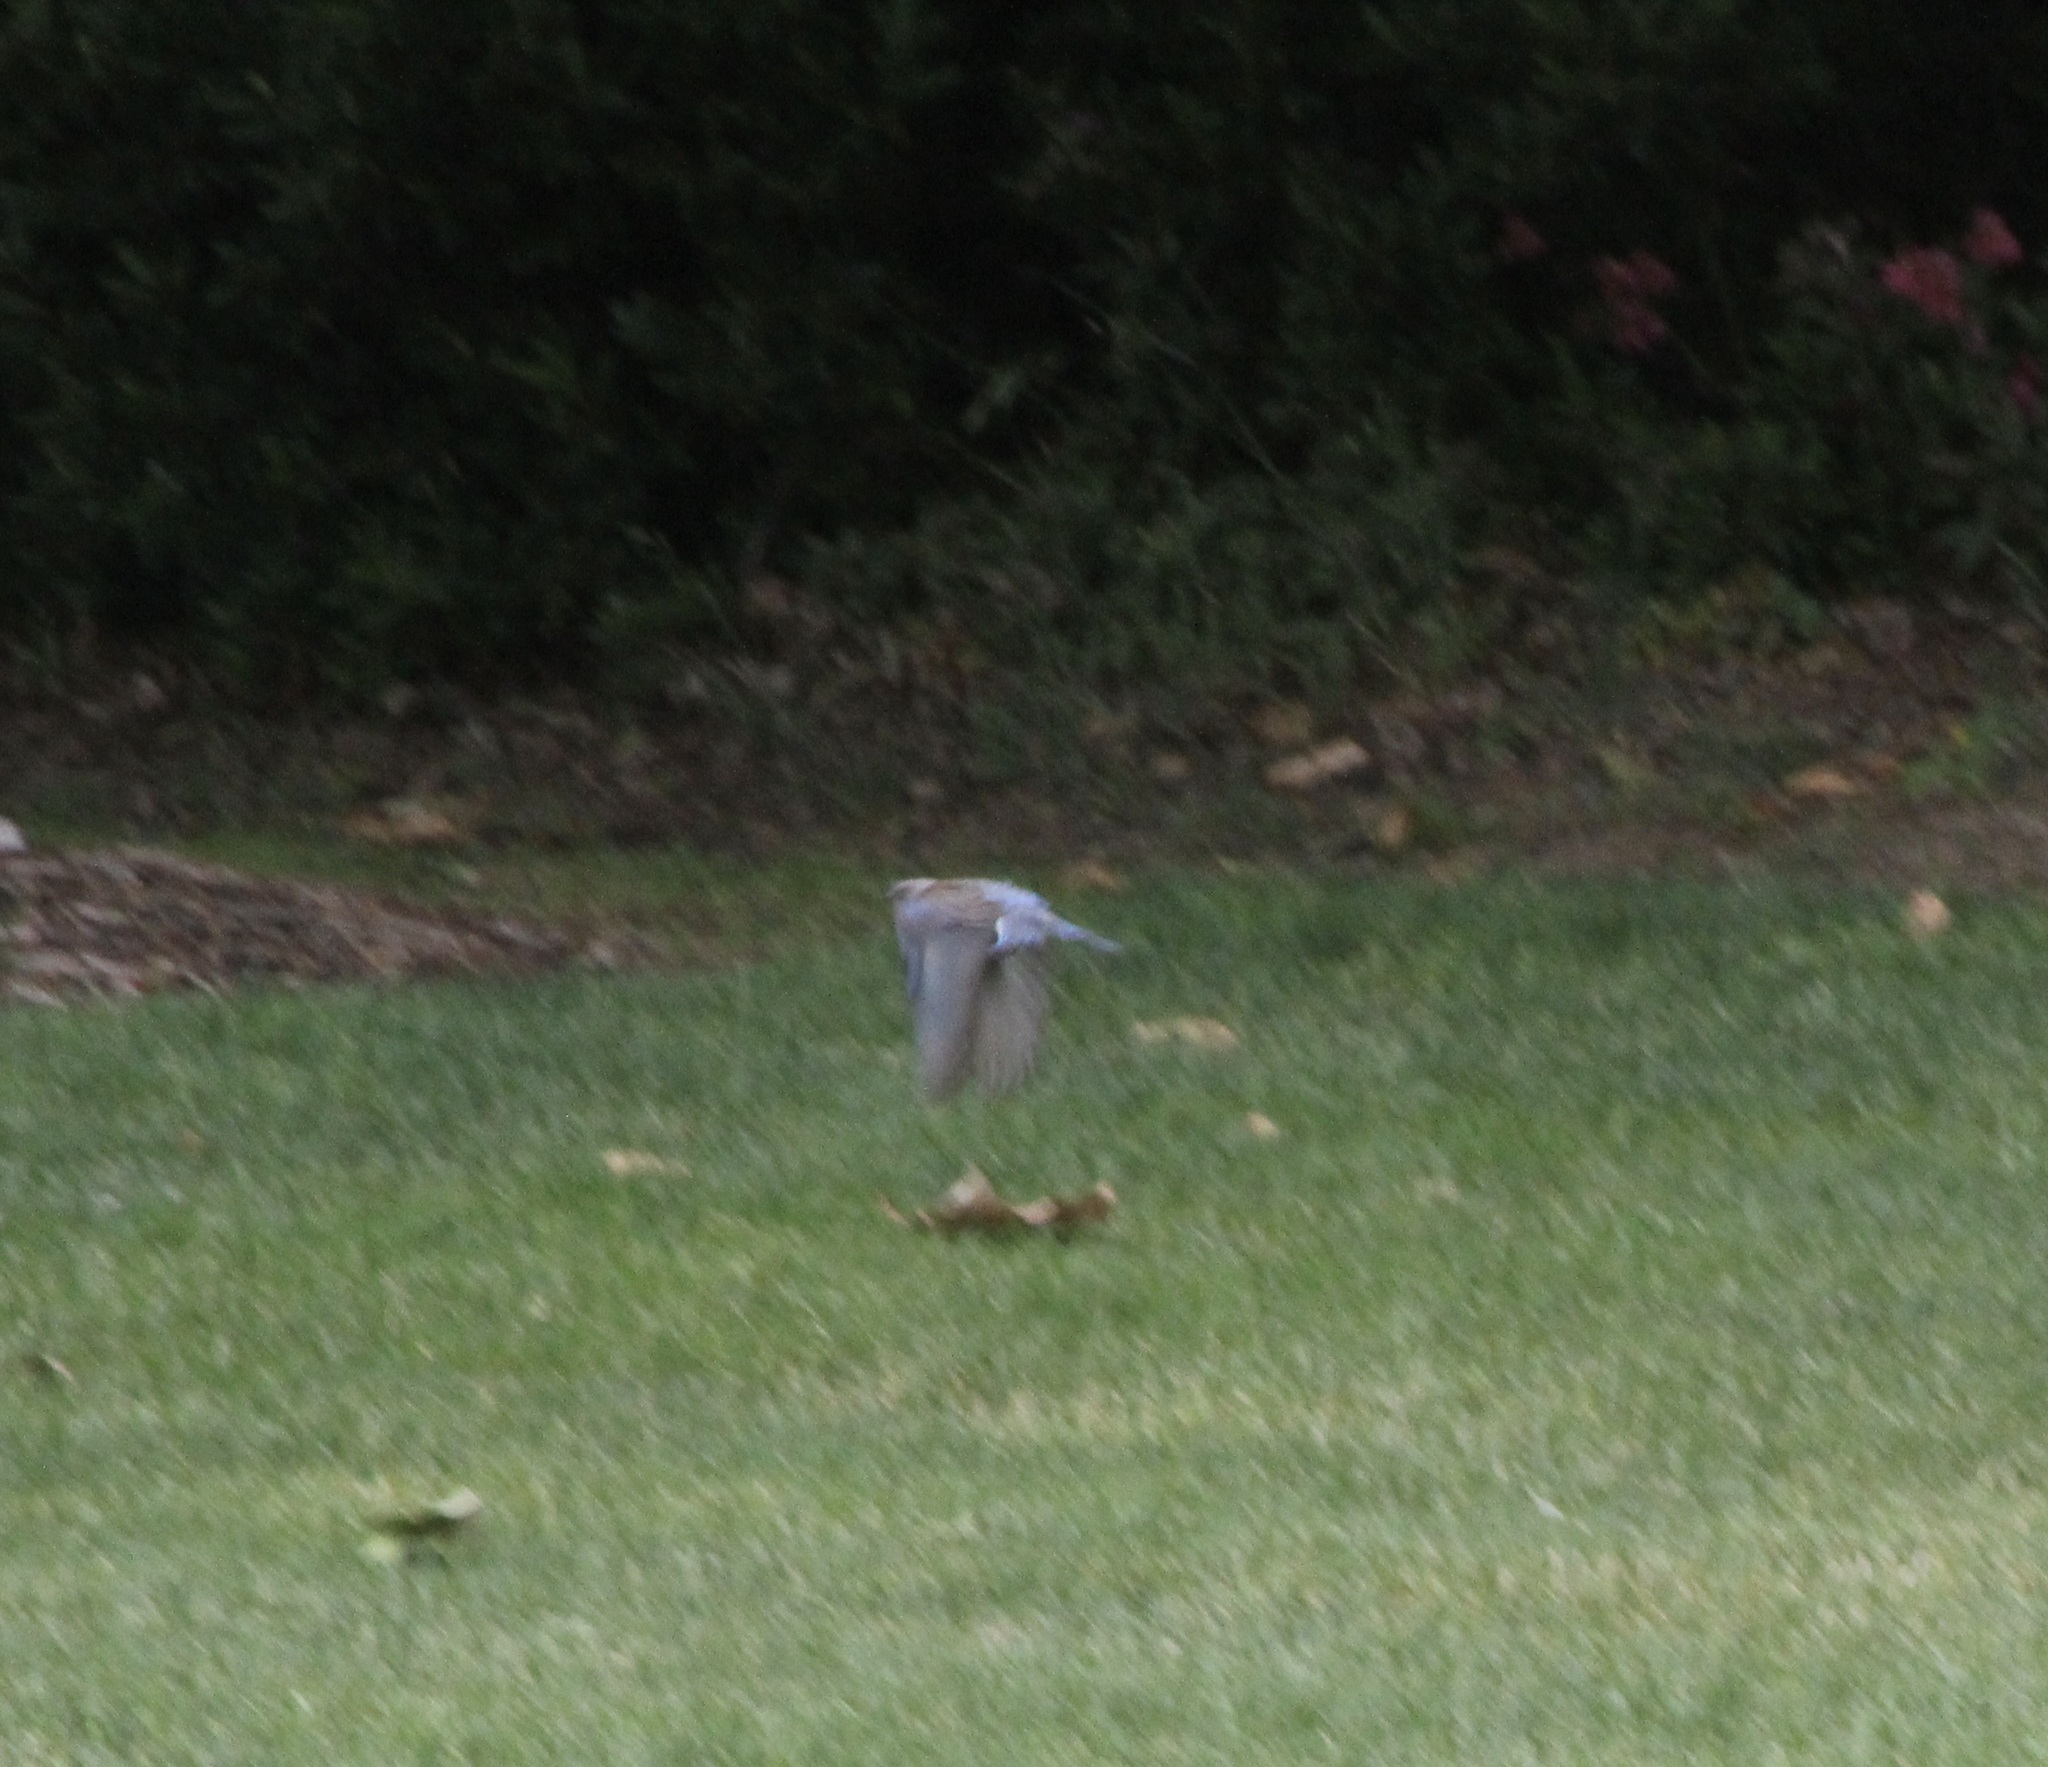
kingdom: Animalia
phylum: Chordata
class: Aves
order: Passeriformes
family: Turdidae
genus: Sialia
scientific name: Sialia mexicana
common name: Western bluebird
